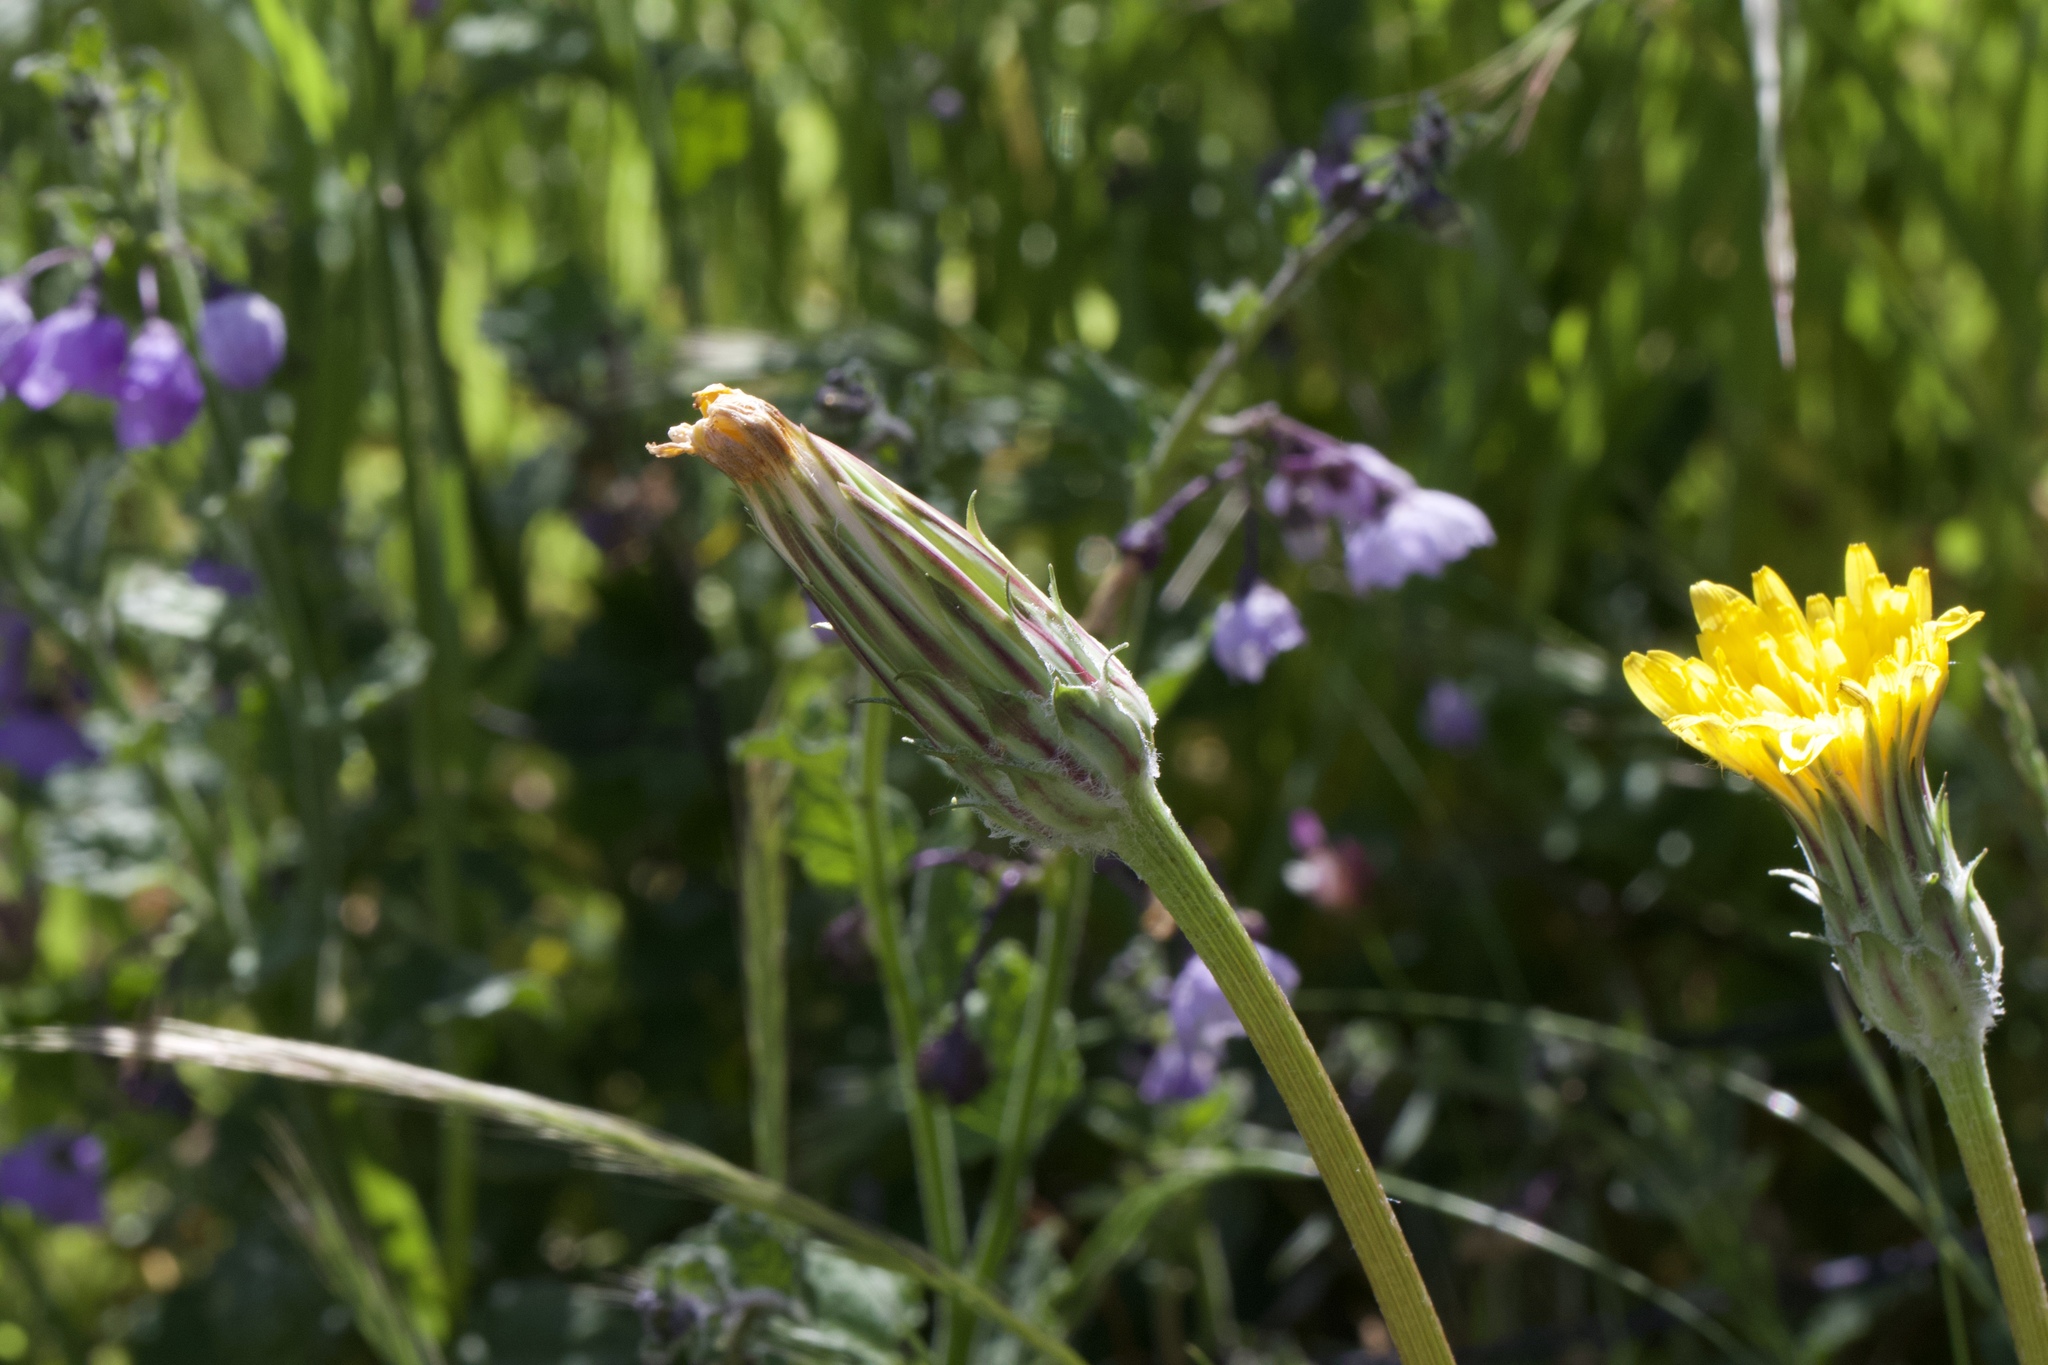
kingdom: Plantae
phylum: Tracheophyta
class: Magnoliopsida
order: Asterales
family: Asteraceae
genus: Agoseris
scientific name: Agoseris retrorsa
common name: Spearleaf agoseris
